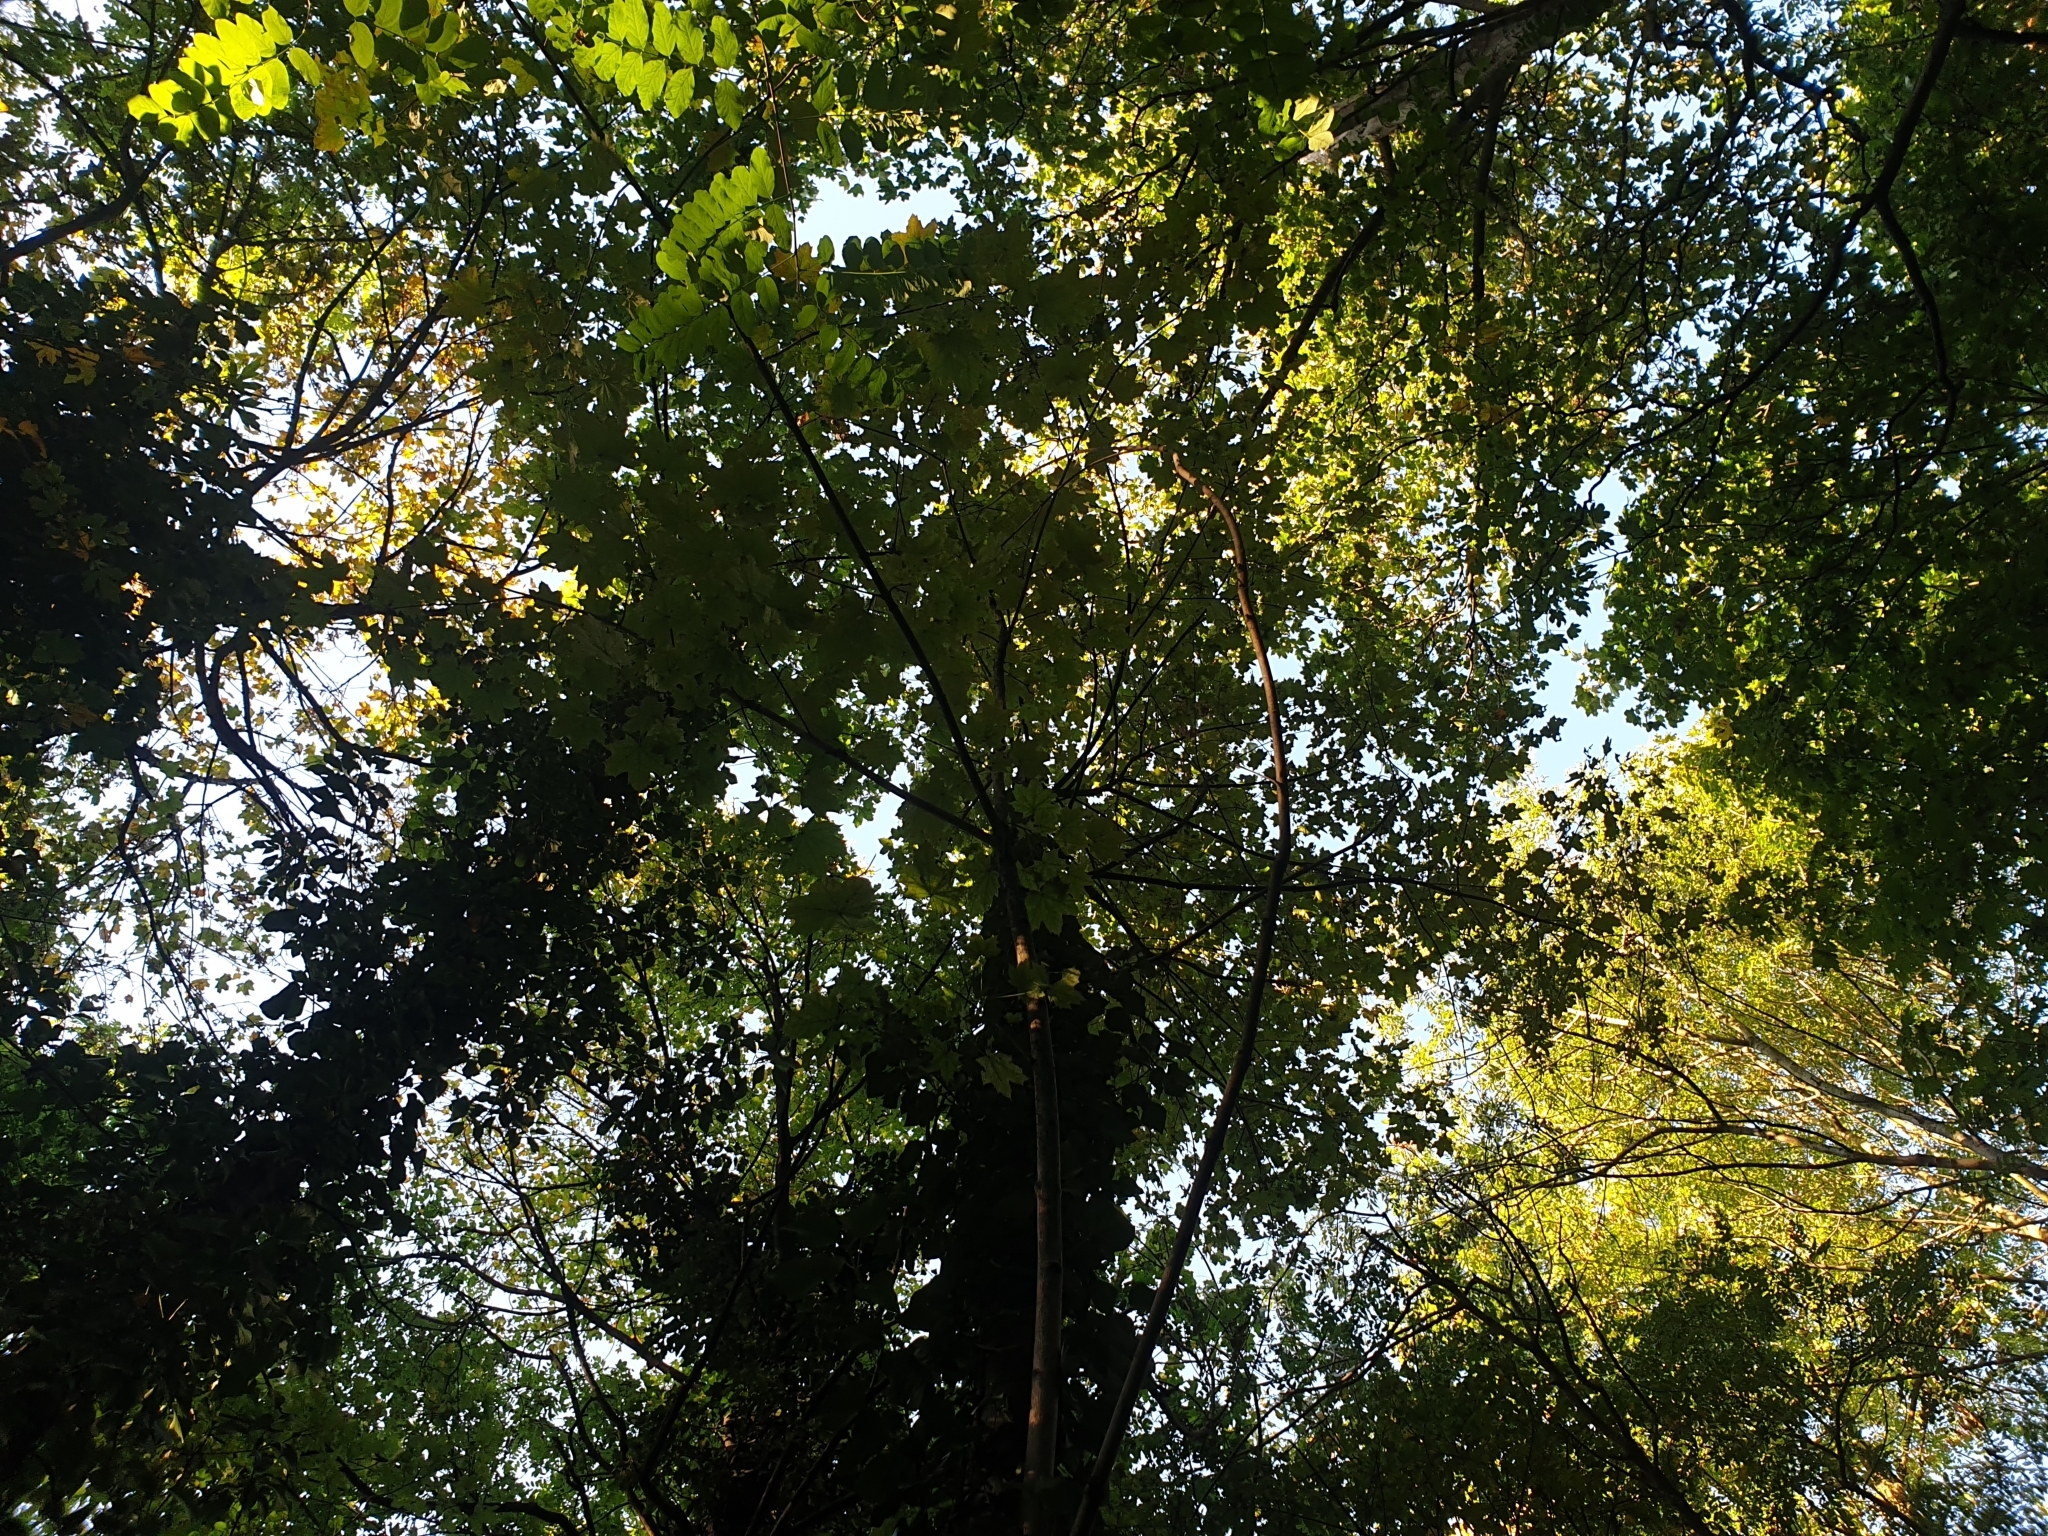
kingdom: Plantae
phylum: Tracheophyta
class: Magnoliopsida
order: Sapindales
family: Sapindaceae
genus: Acer
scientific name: Acer platanoides
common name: Norway maple
